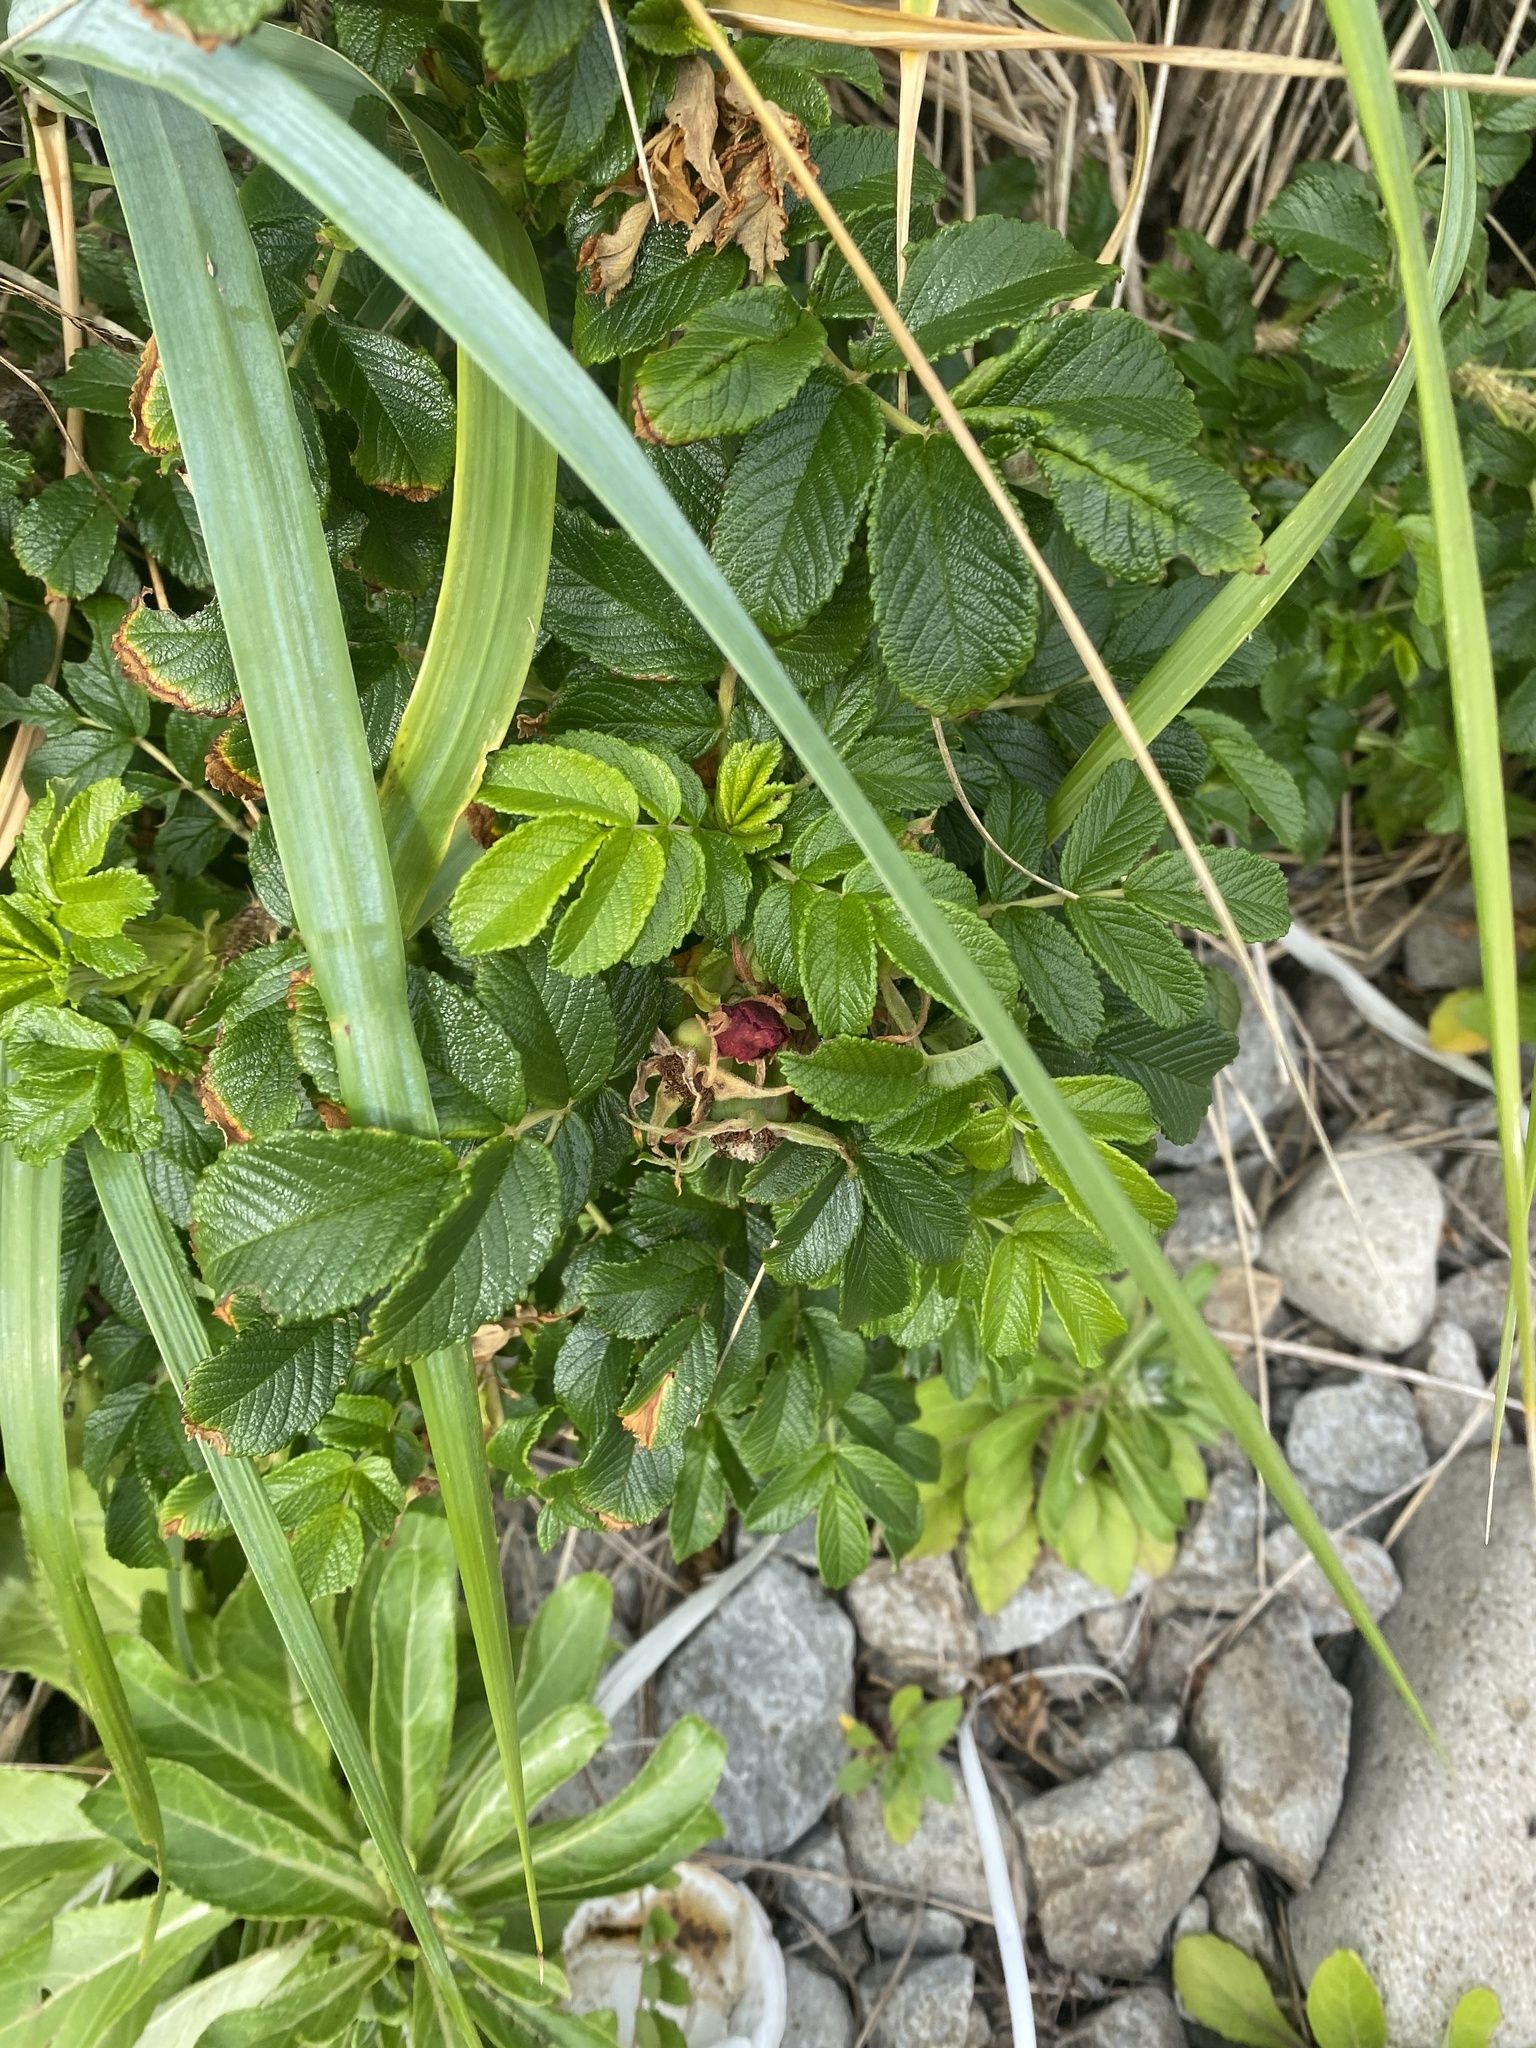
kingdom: Plantae
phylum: Tracheophyta
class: Magnoliopsida
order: Rosales
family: Rosaceae
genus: Rosa
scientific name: Rosa rugosa
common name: Japanese rose
